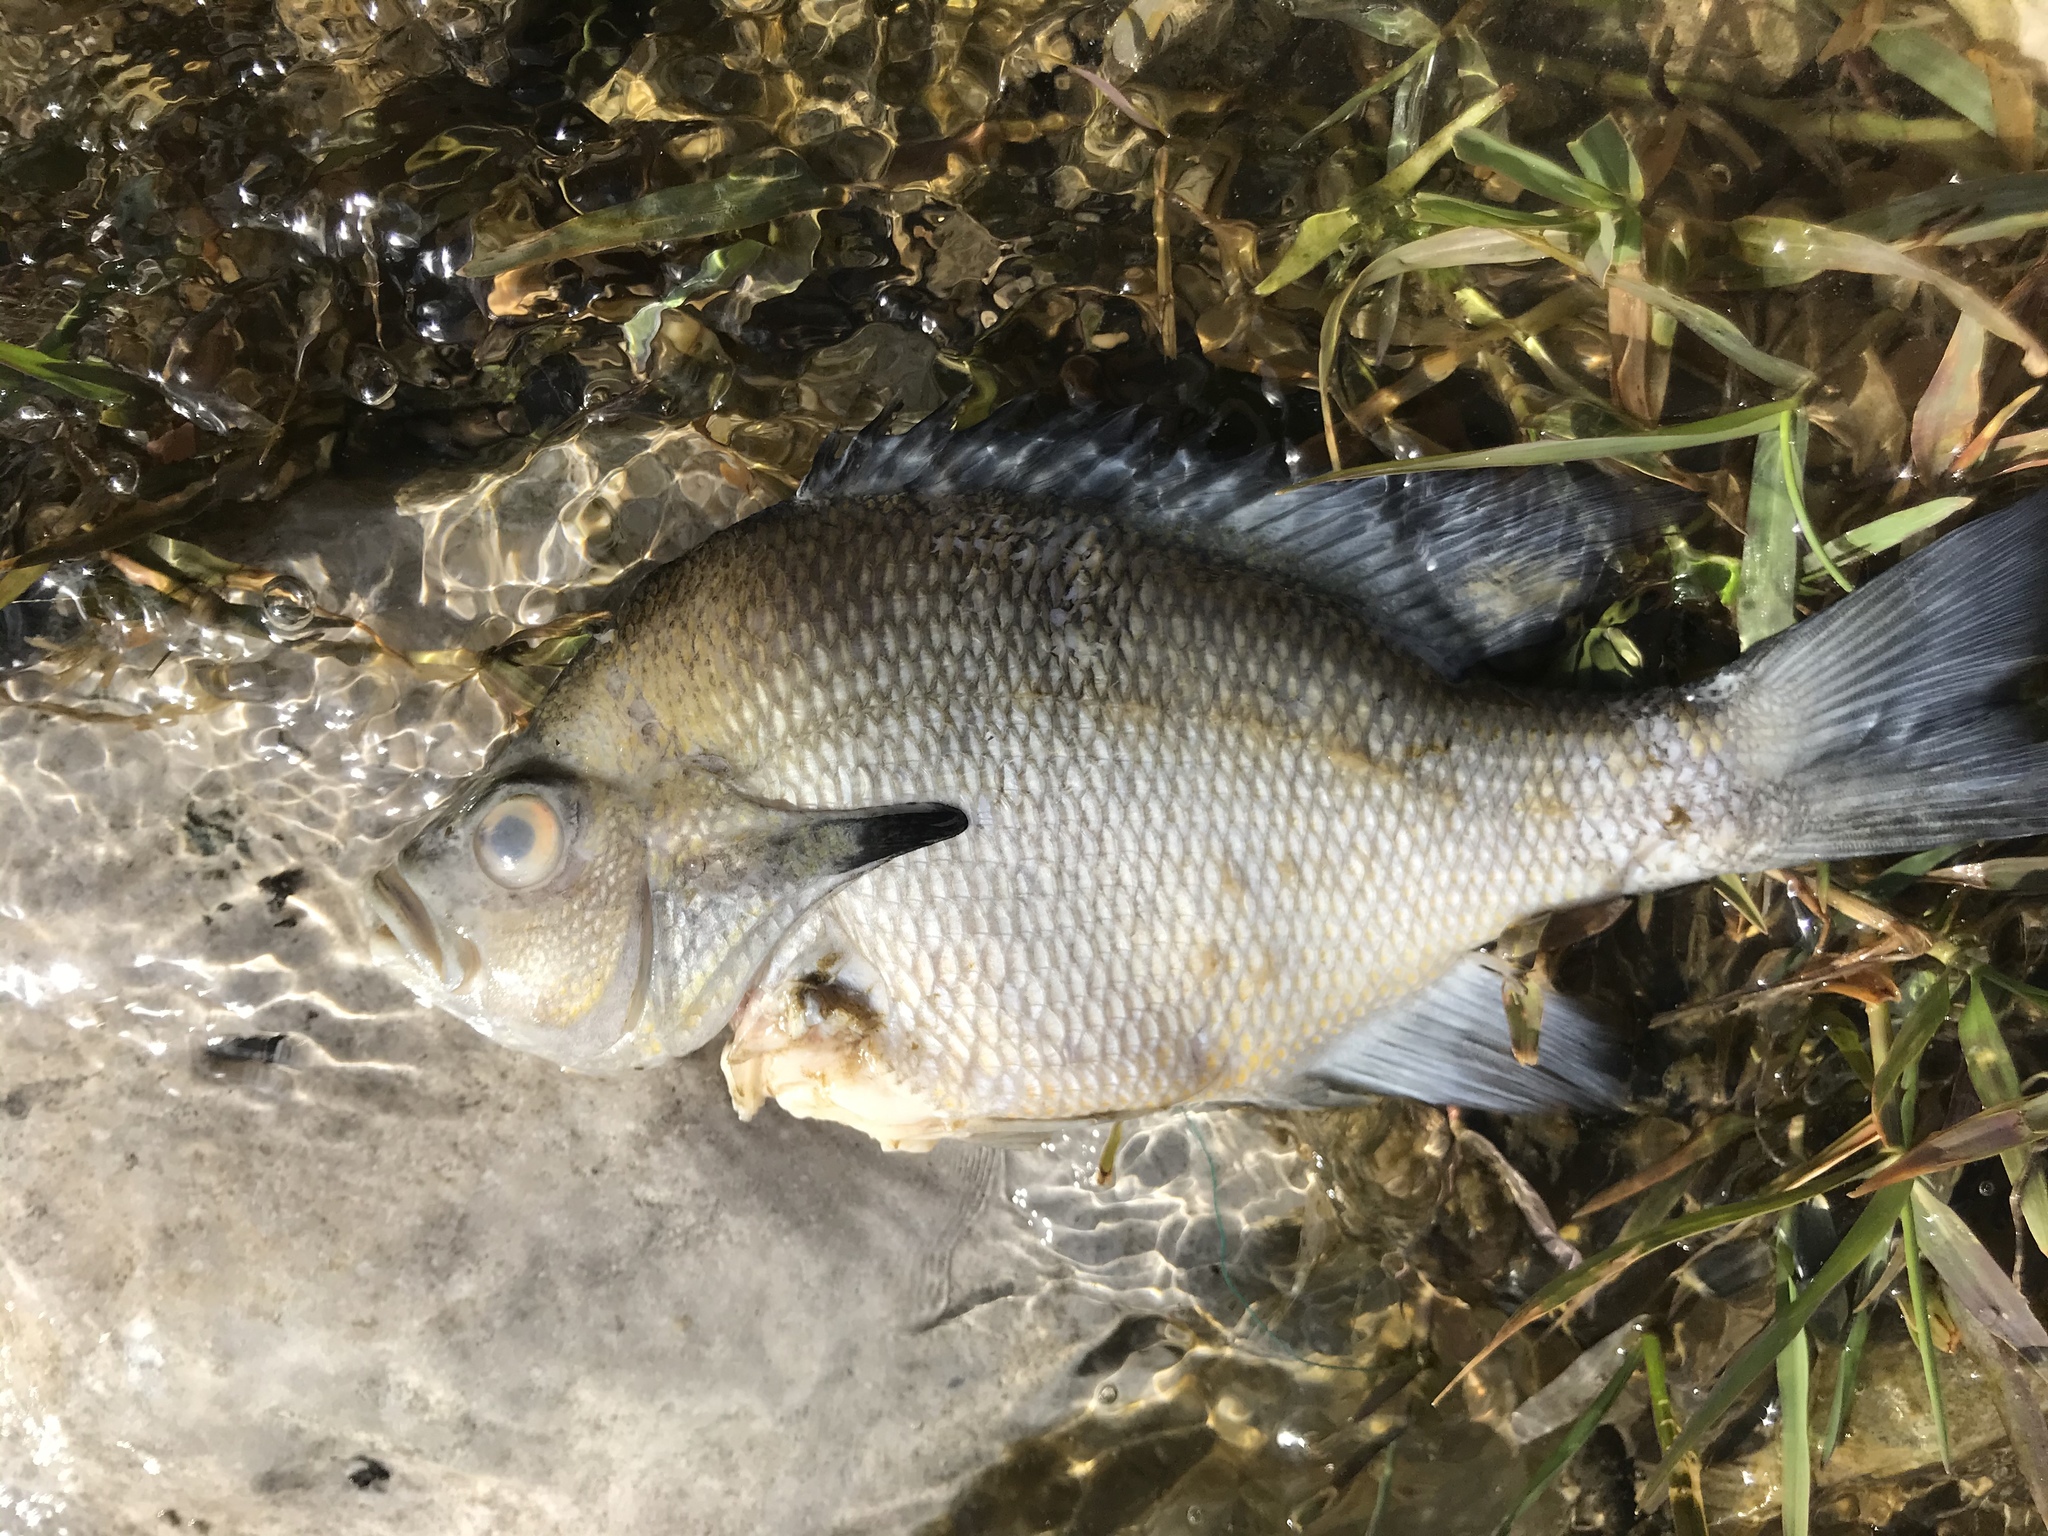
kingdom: Animalia
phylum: Chordata
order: Perciformes
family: Centrarchidae
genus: Lepomis
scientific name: Lepomis auritus
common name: Redbreast sunfish
